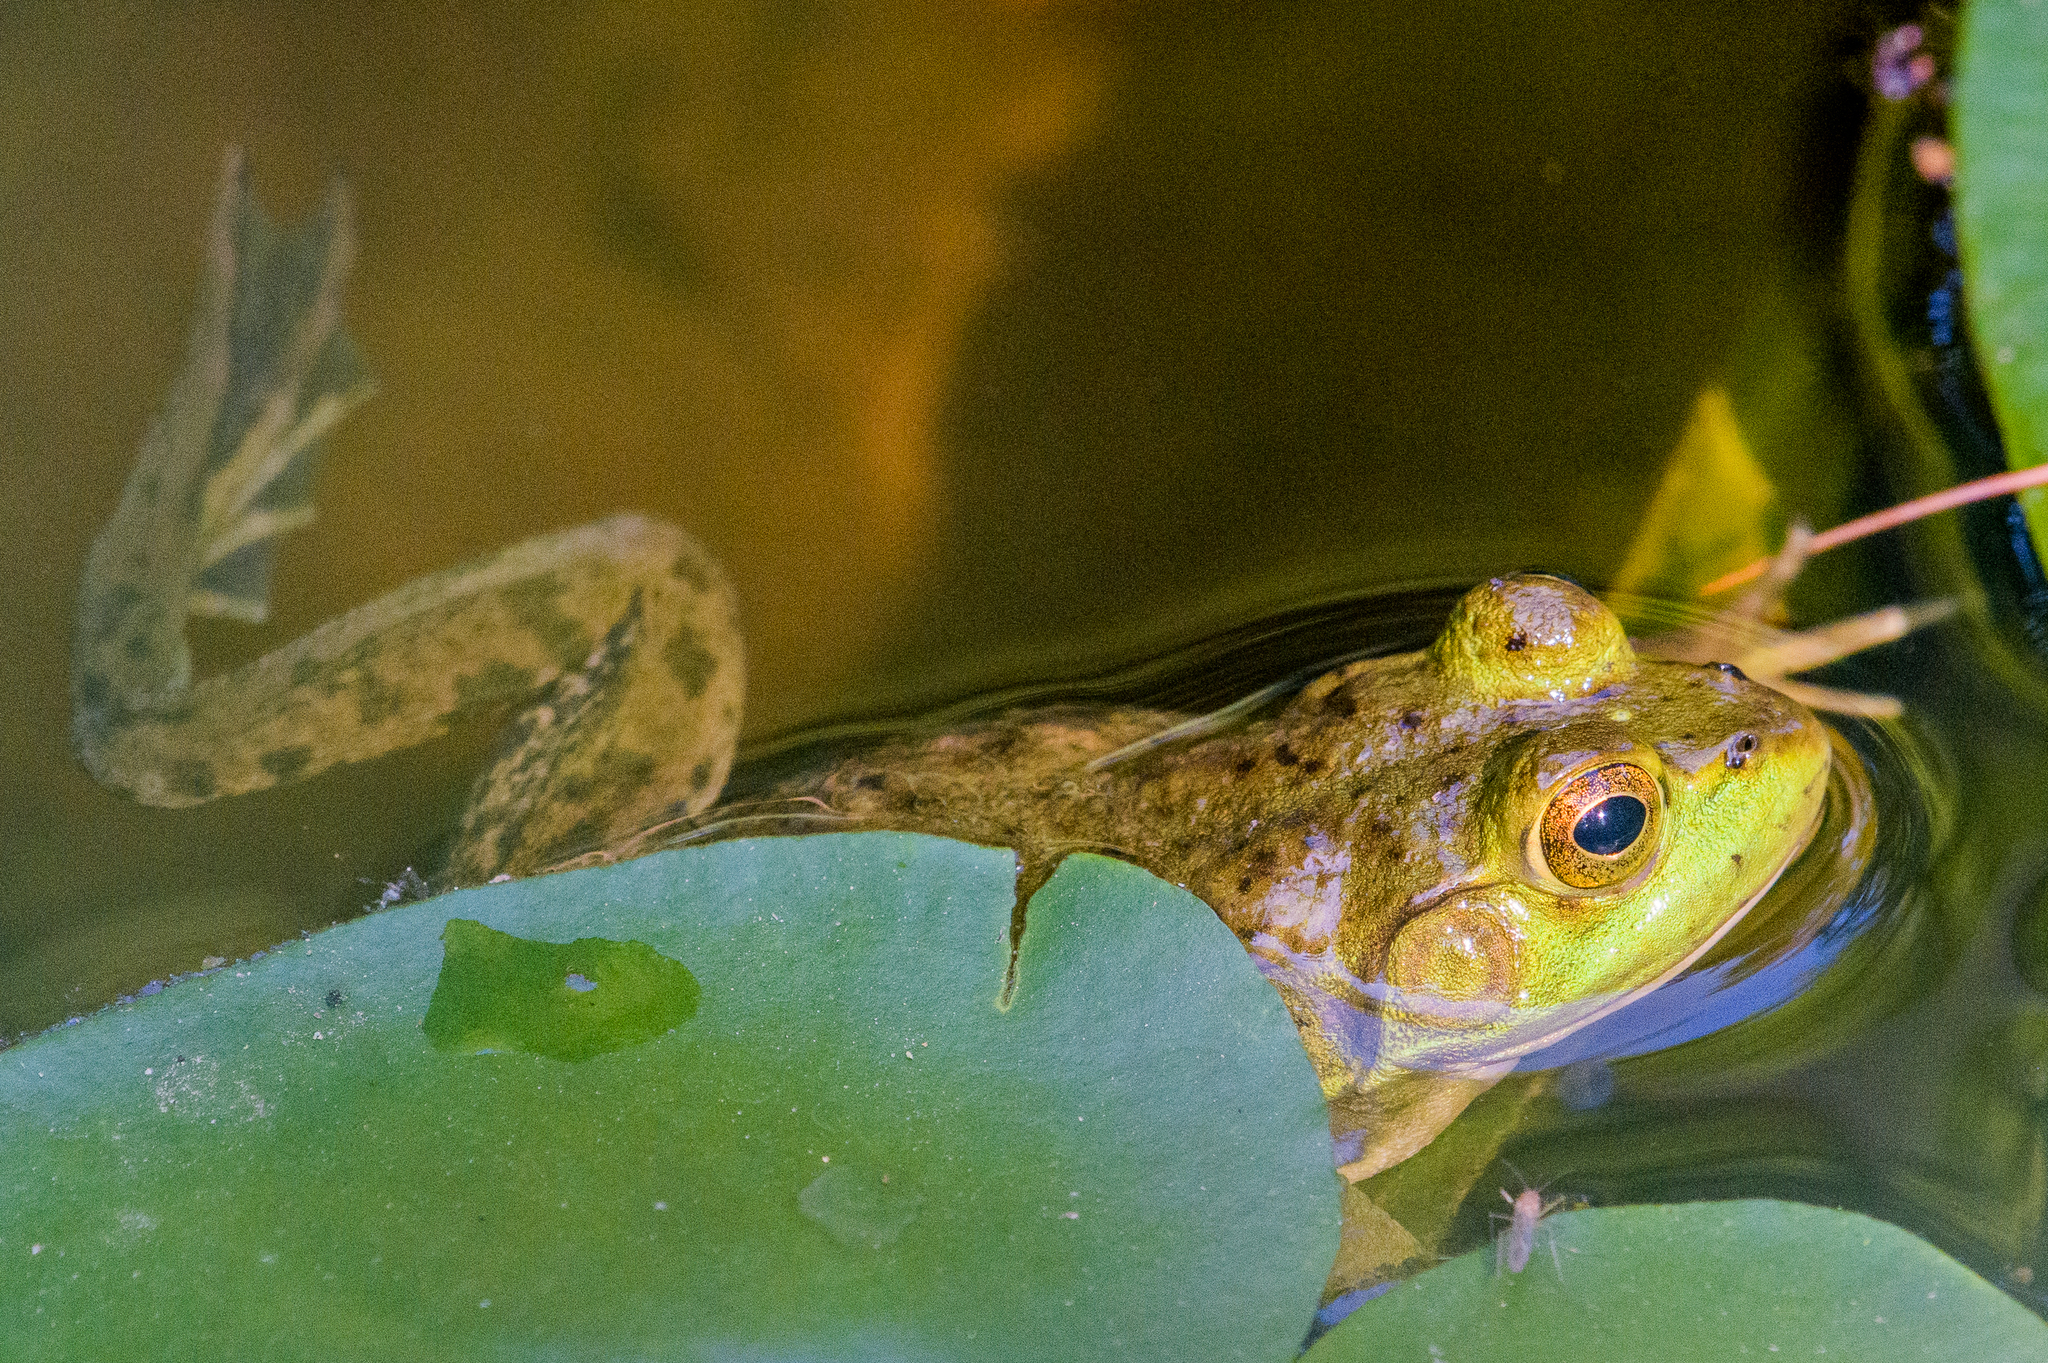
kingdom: Animalia
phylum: Chordata
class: Amphibia
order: Anura
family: Ranidae
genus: Lithobates
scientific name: Lithobates catesbeianus
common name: American bullfrog
